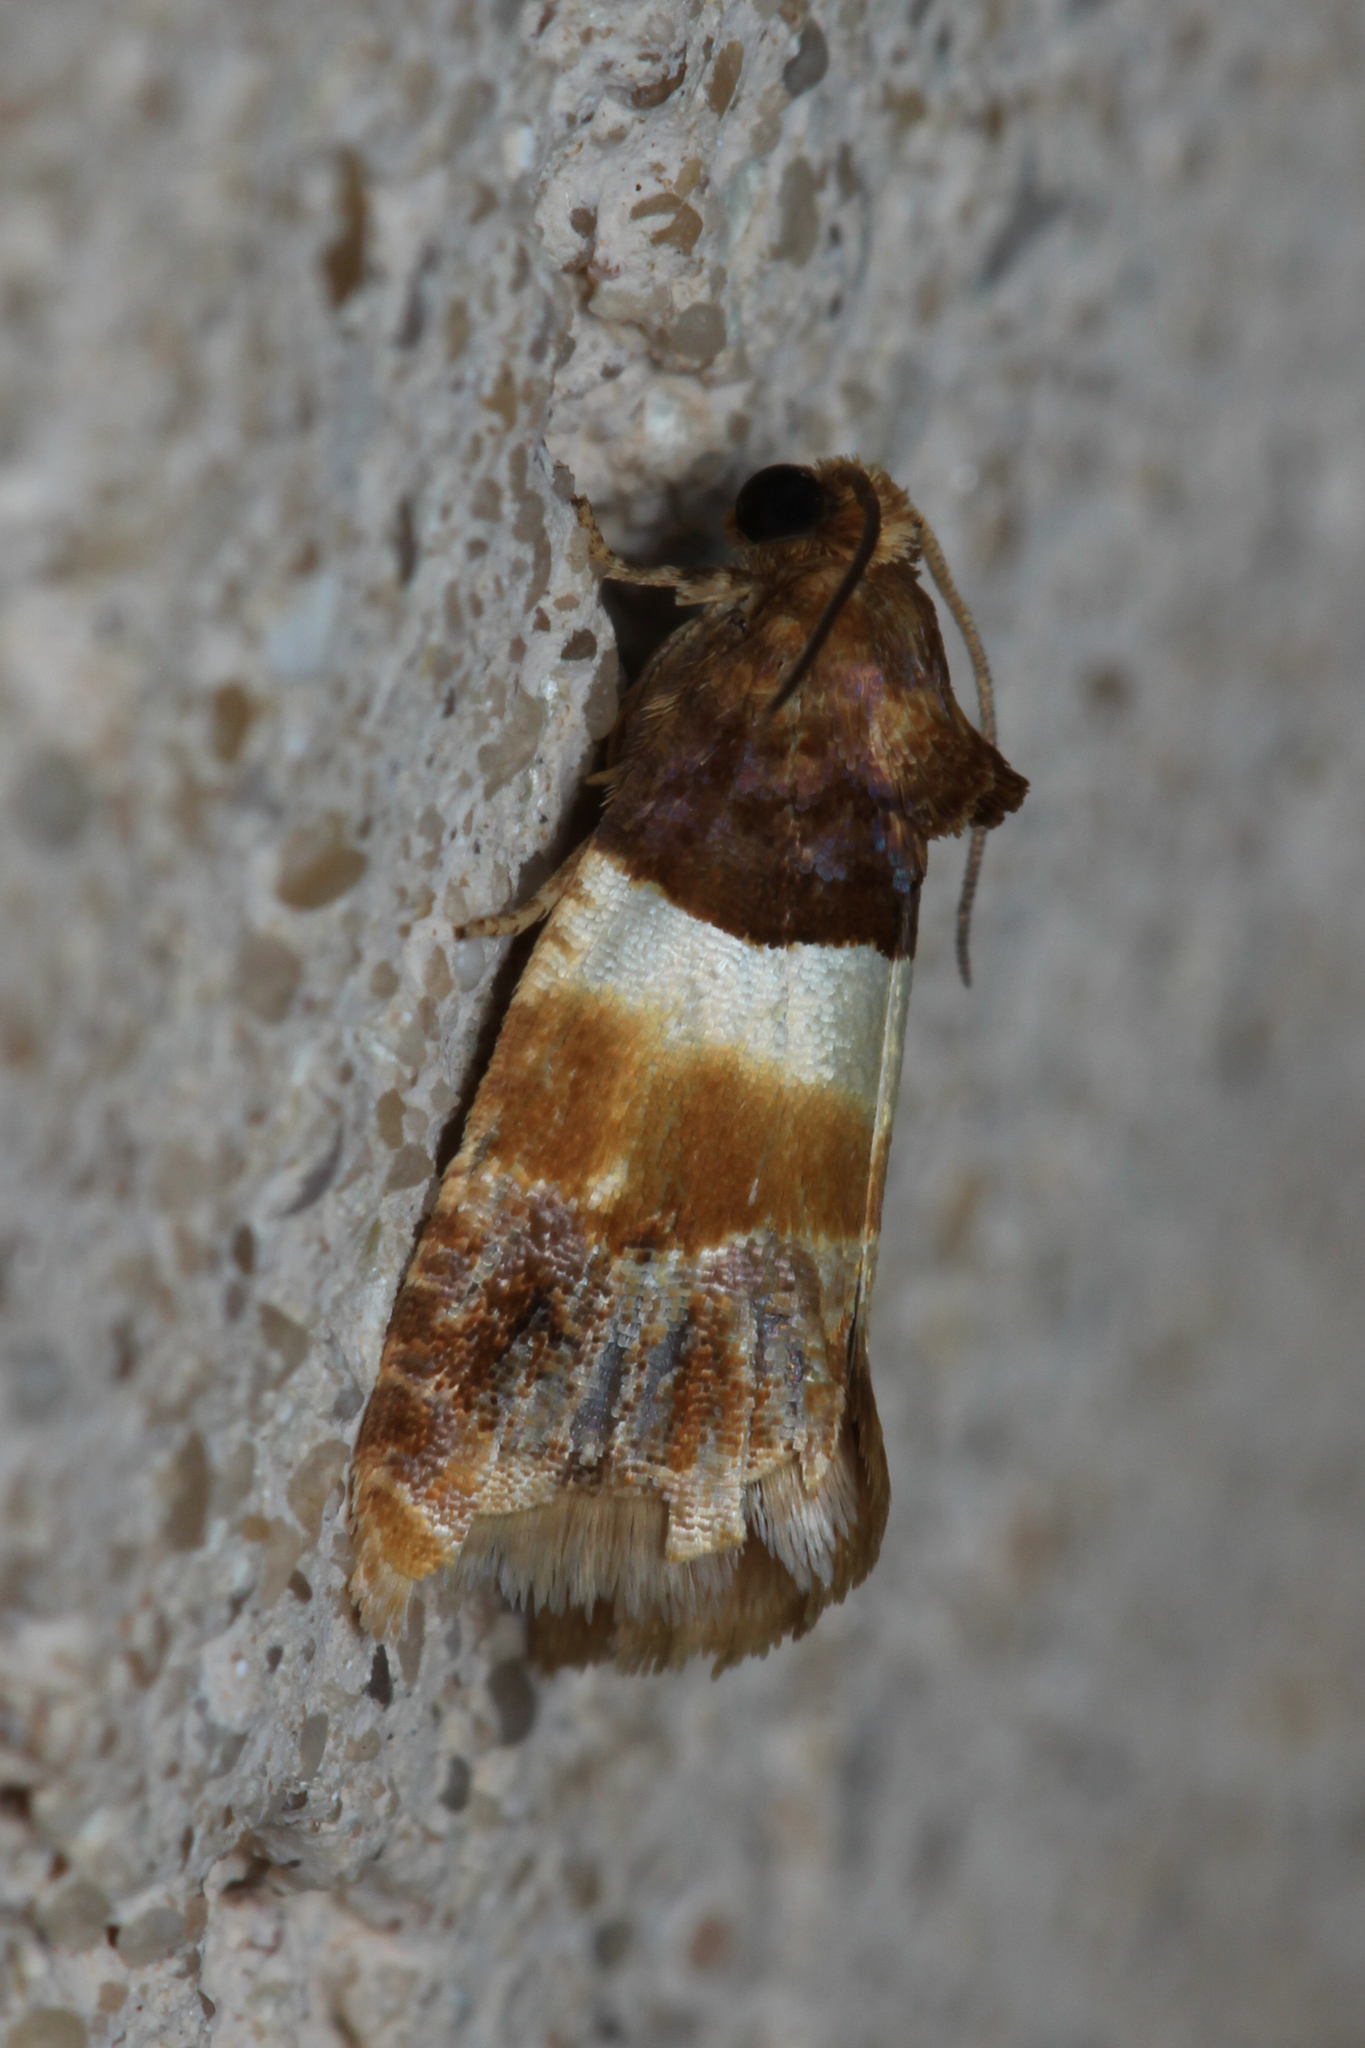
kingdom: Animalia
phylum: Arthropoda
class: Insecta
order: Lepidoptera
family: Tortricidae
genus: Epinotia
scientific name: Epinotia festivana
